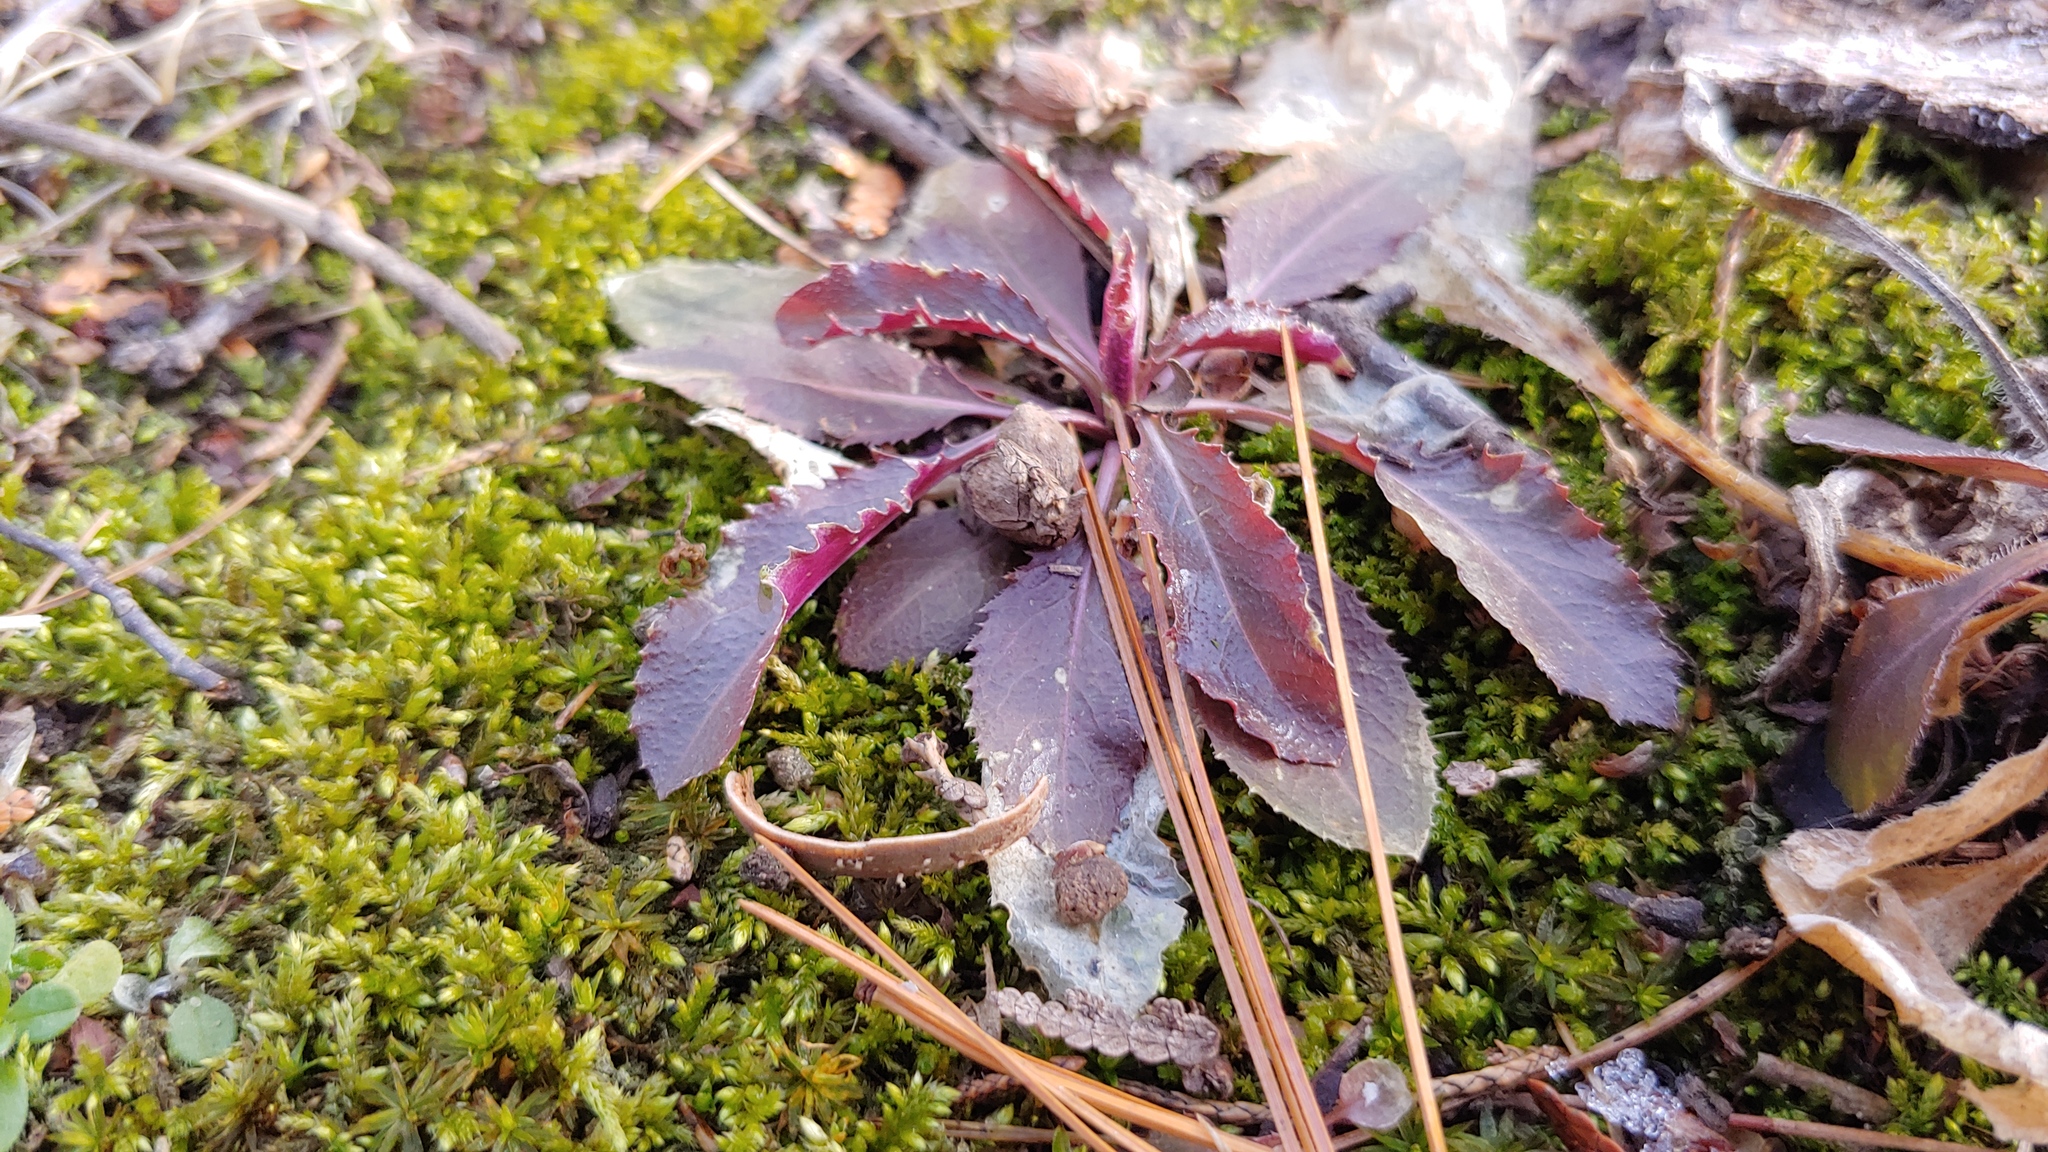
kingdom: Plantae
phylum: Tracheophyta
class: Magnoliopsida
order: Brassicales
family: Brassicaceae
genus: Borodinia
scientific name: Borodinia laevigata
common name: Smooth rockcress
